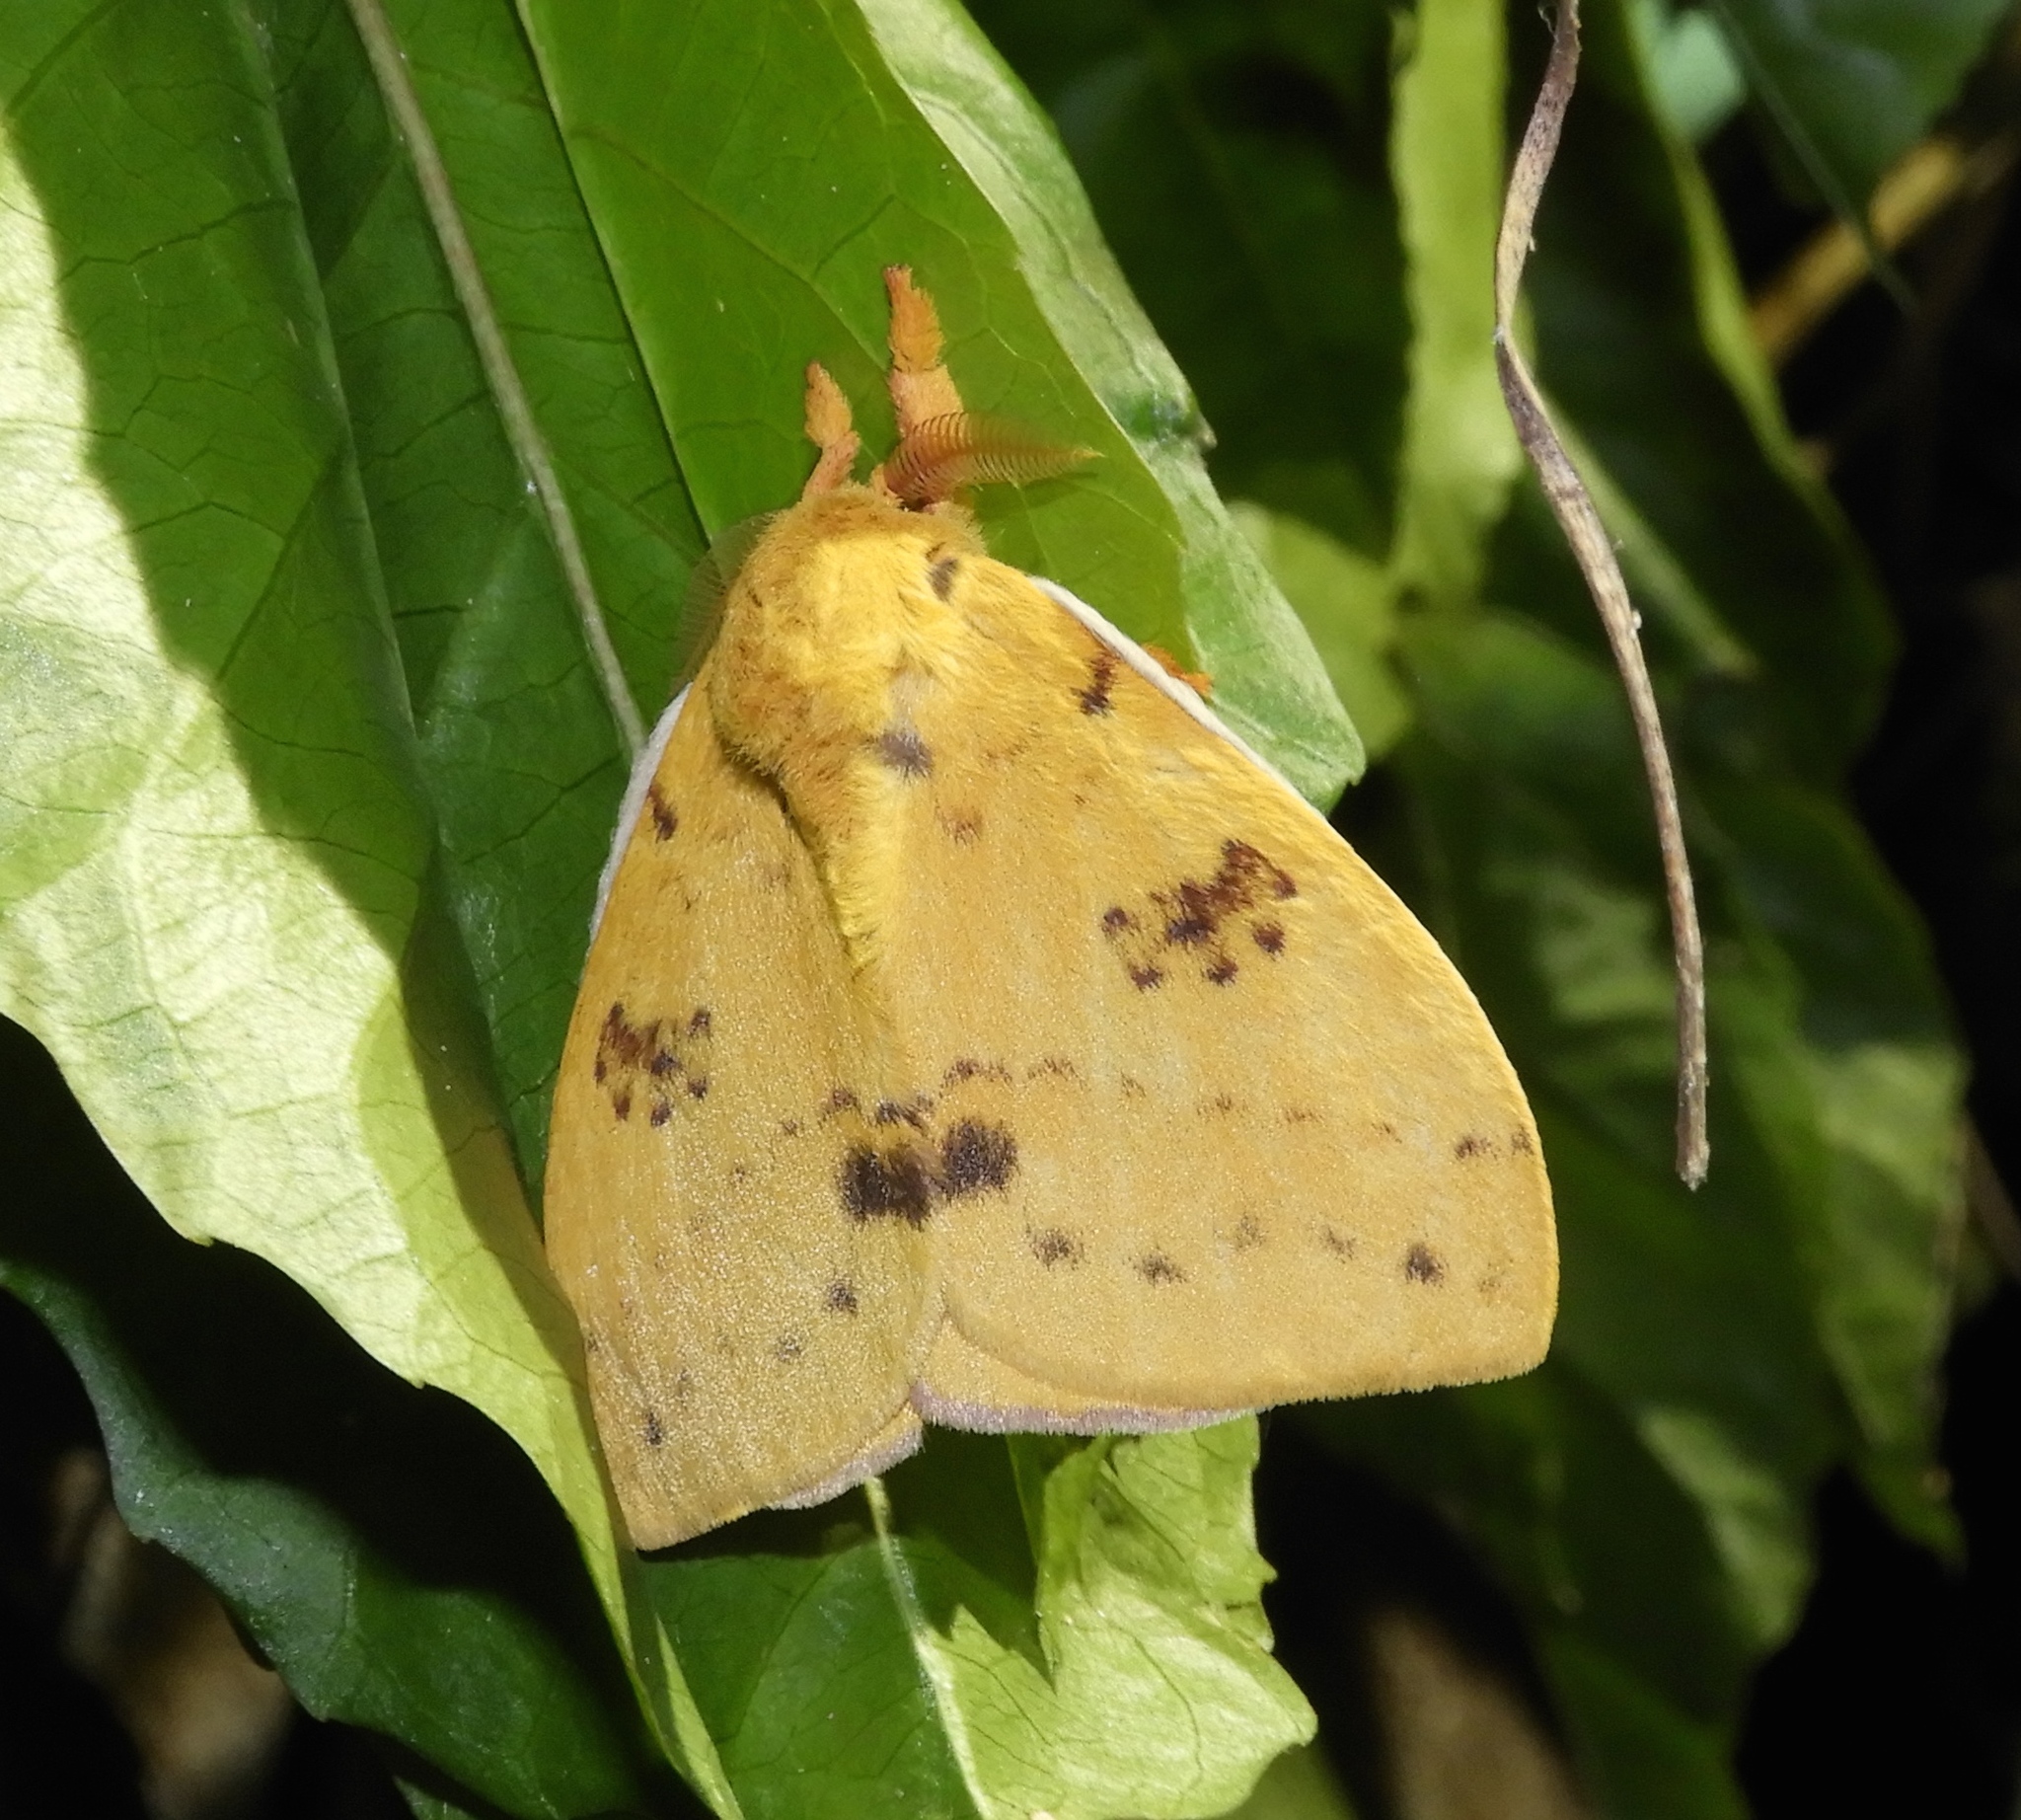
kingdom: Animalia
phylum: Arthropoda
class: Insecta
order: Lepidoptera
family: Saturniidae
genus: Automeris
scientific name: Automeris
